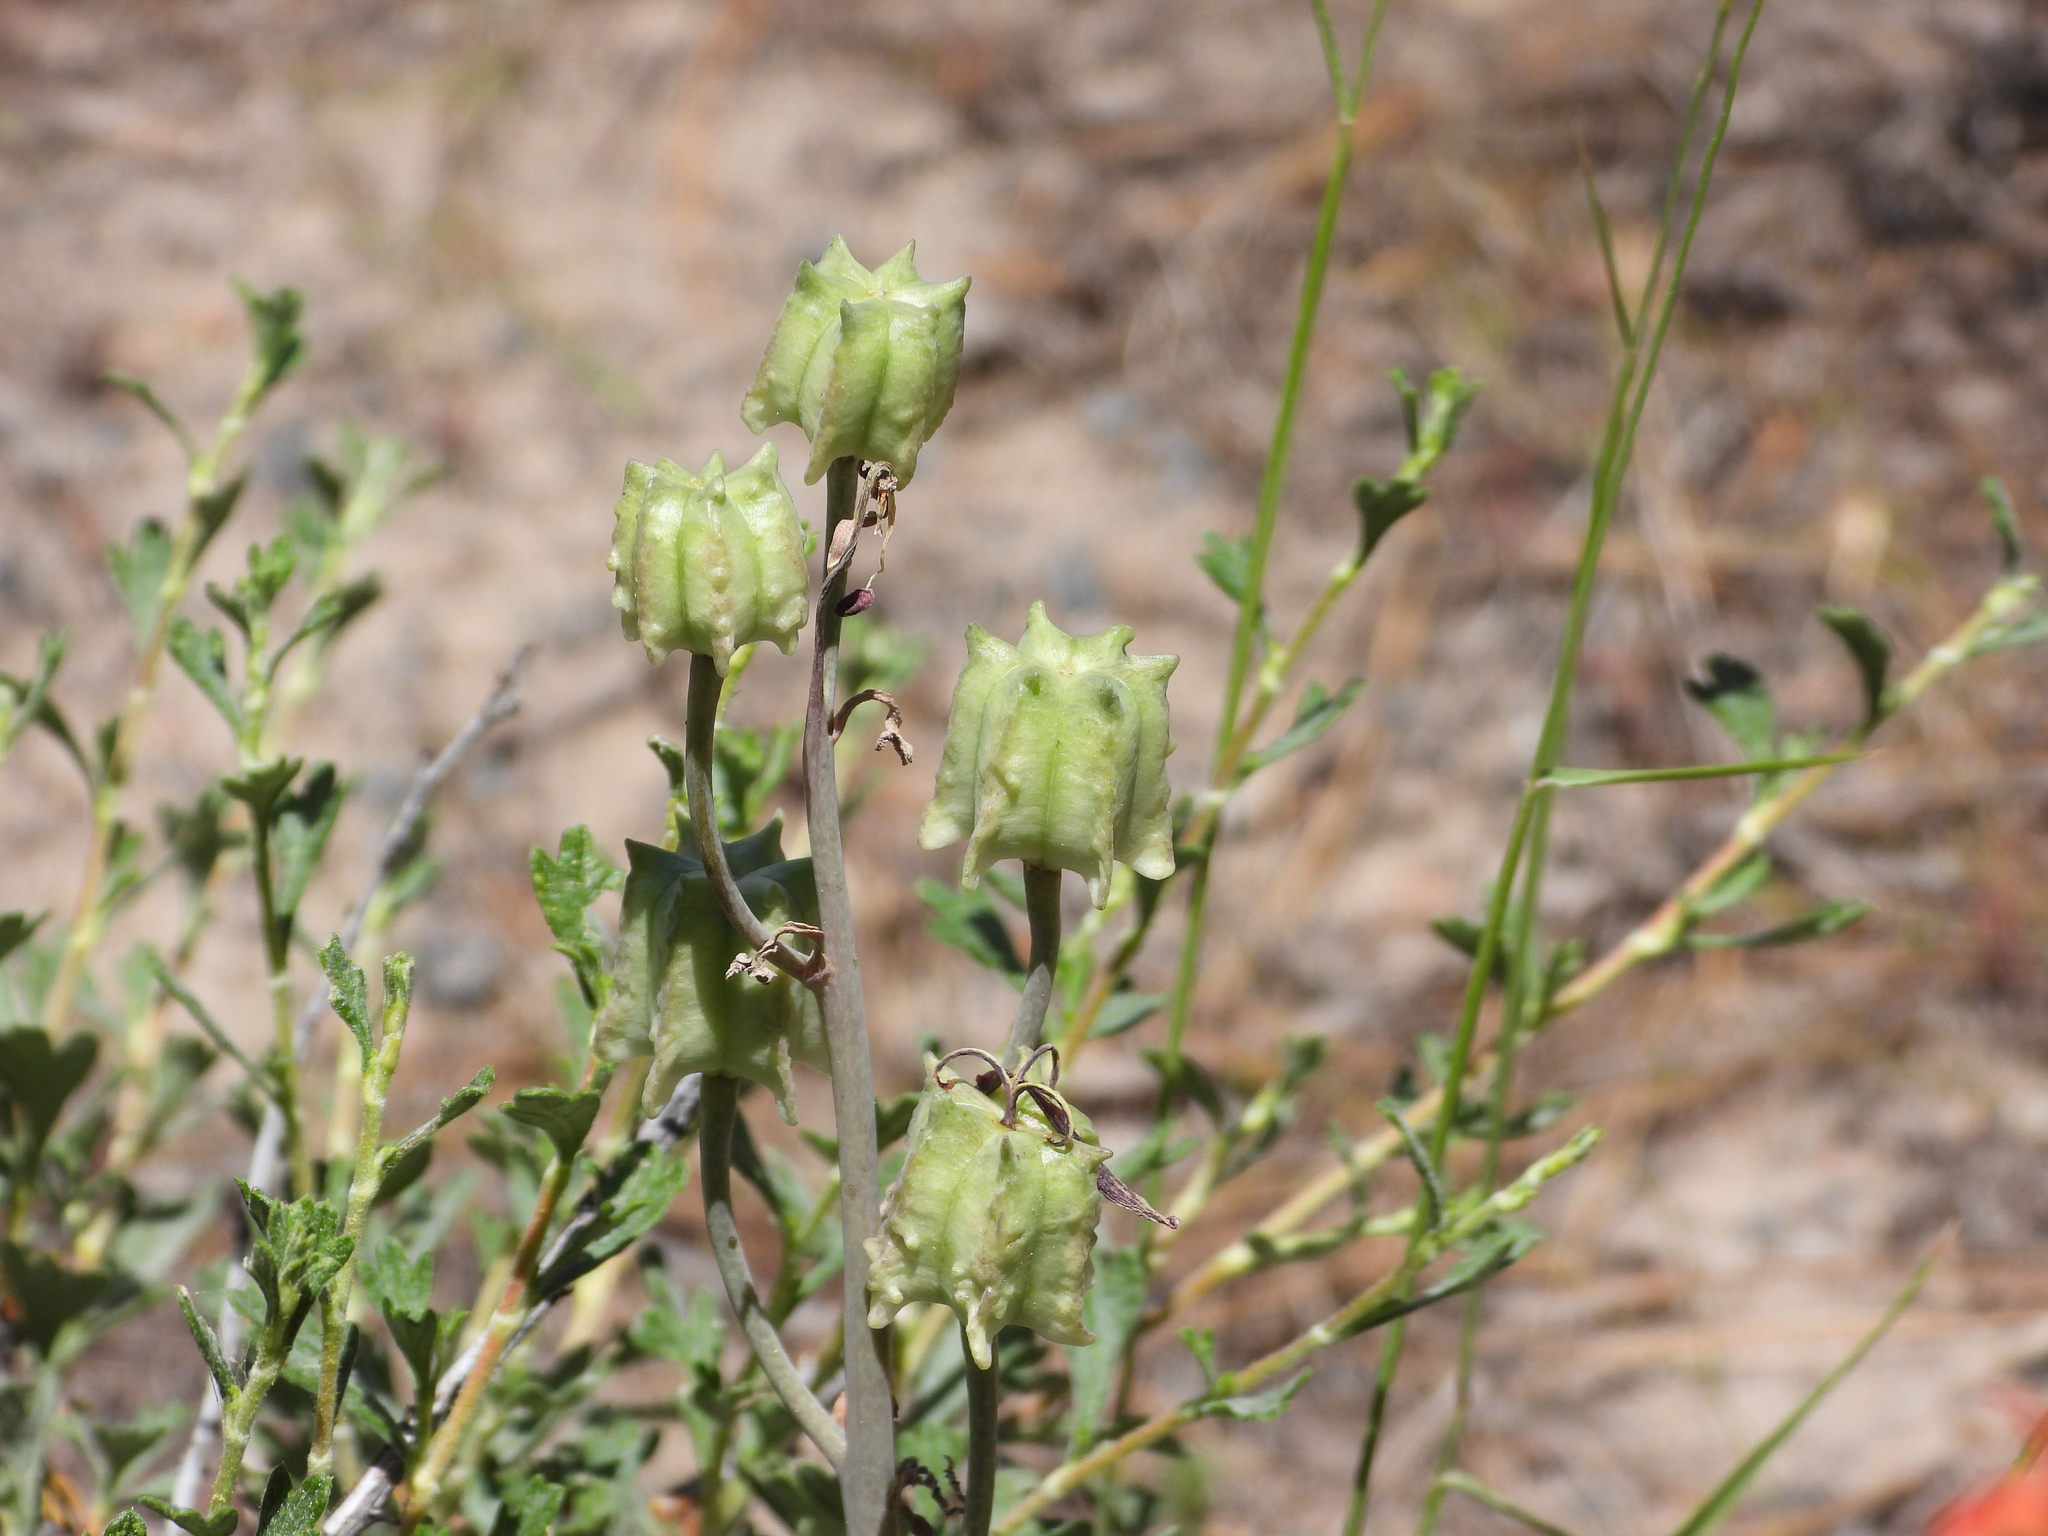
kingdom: Plantae
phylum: Tracheophyta
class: Liliopsida
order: Liliales
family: Liliaceae
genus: Fritillaria
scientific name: Fritillaria pinetorum
